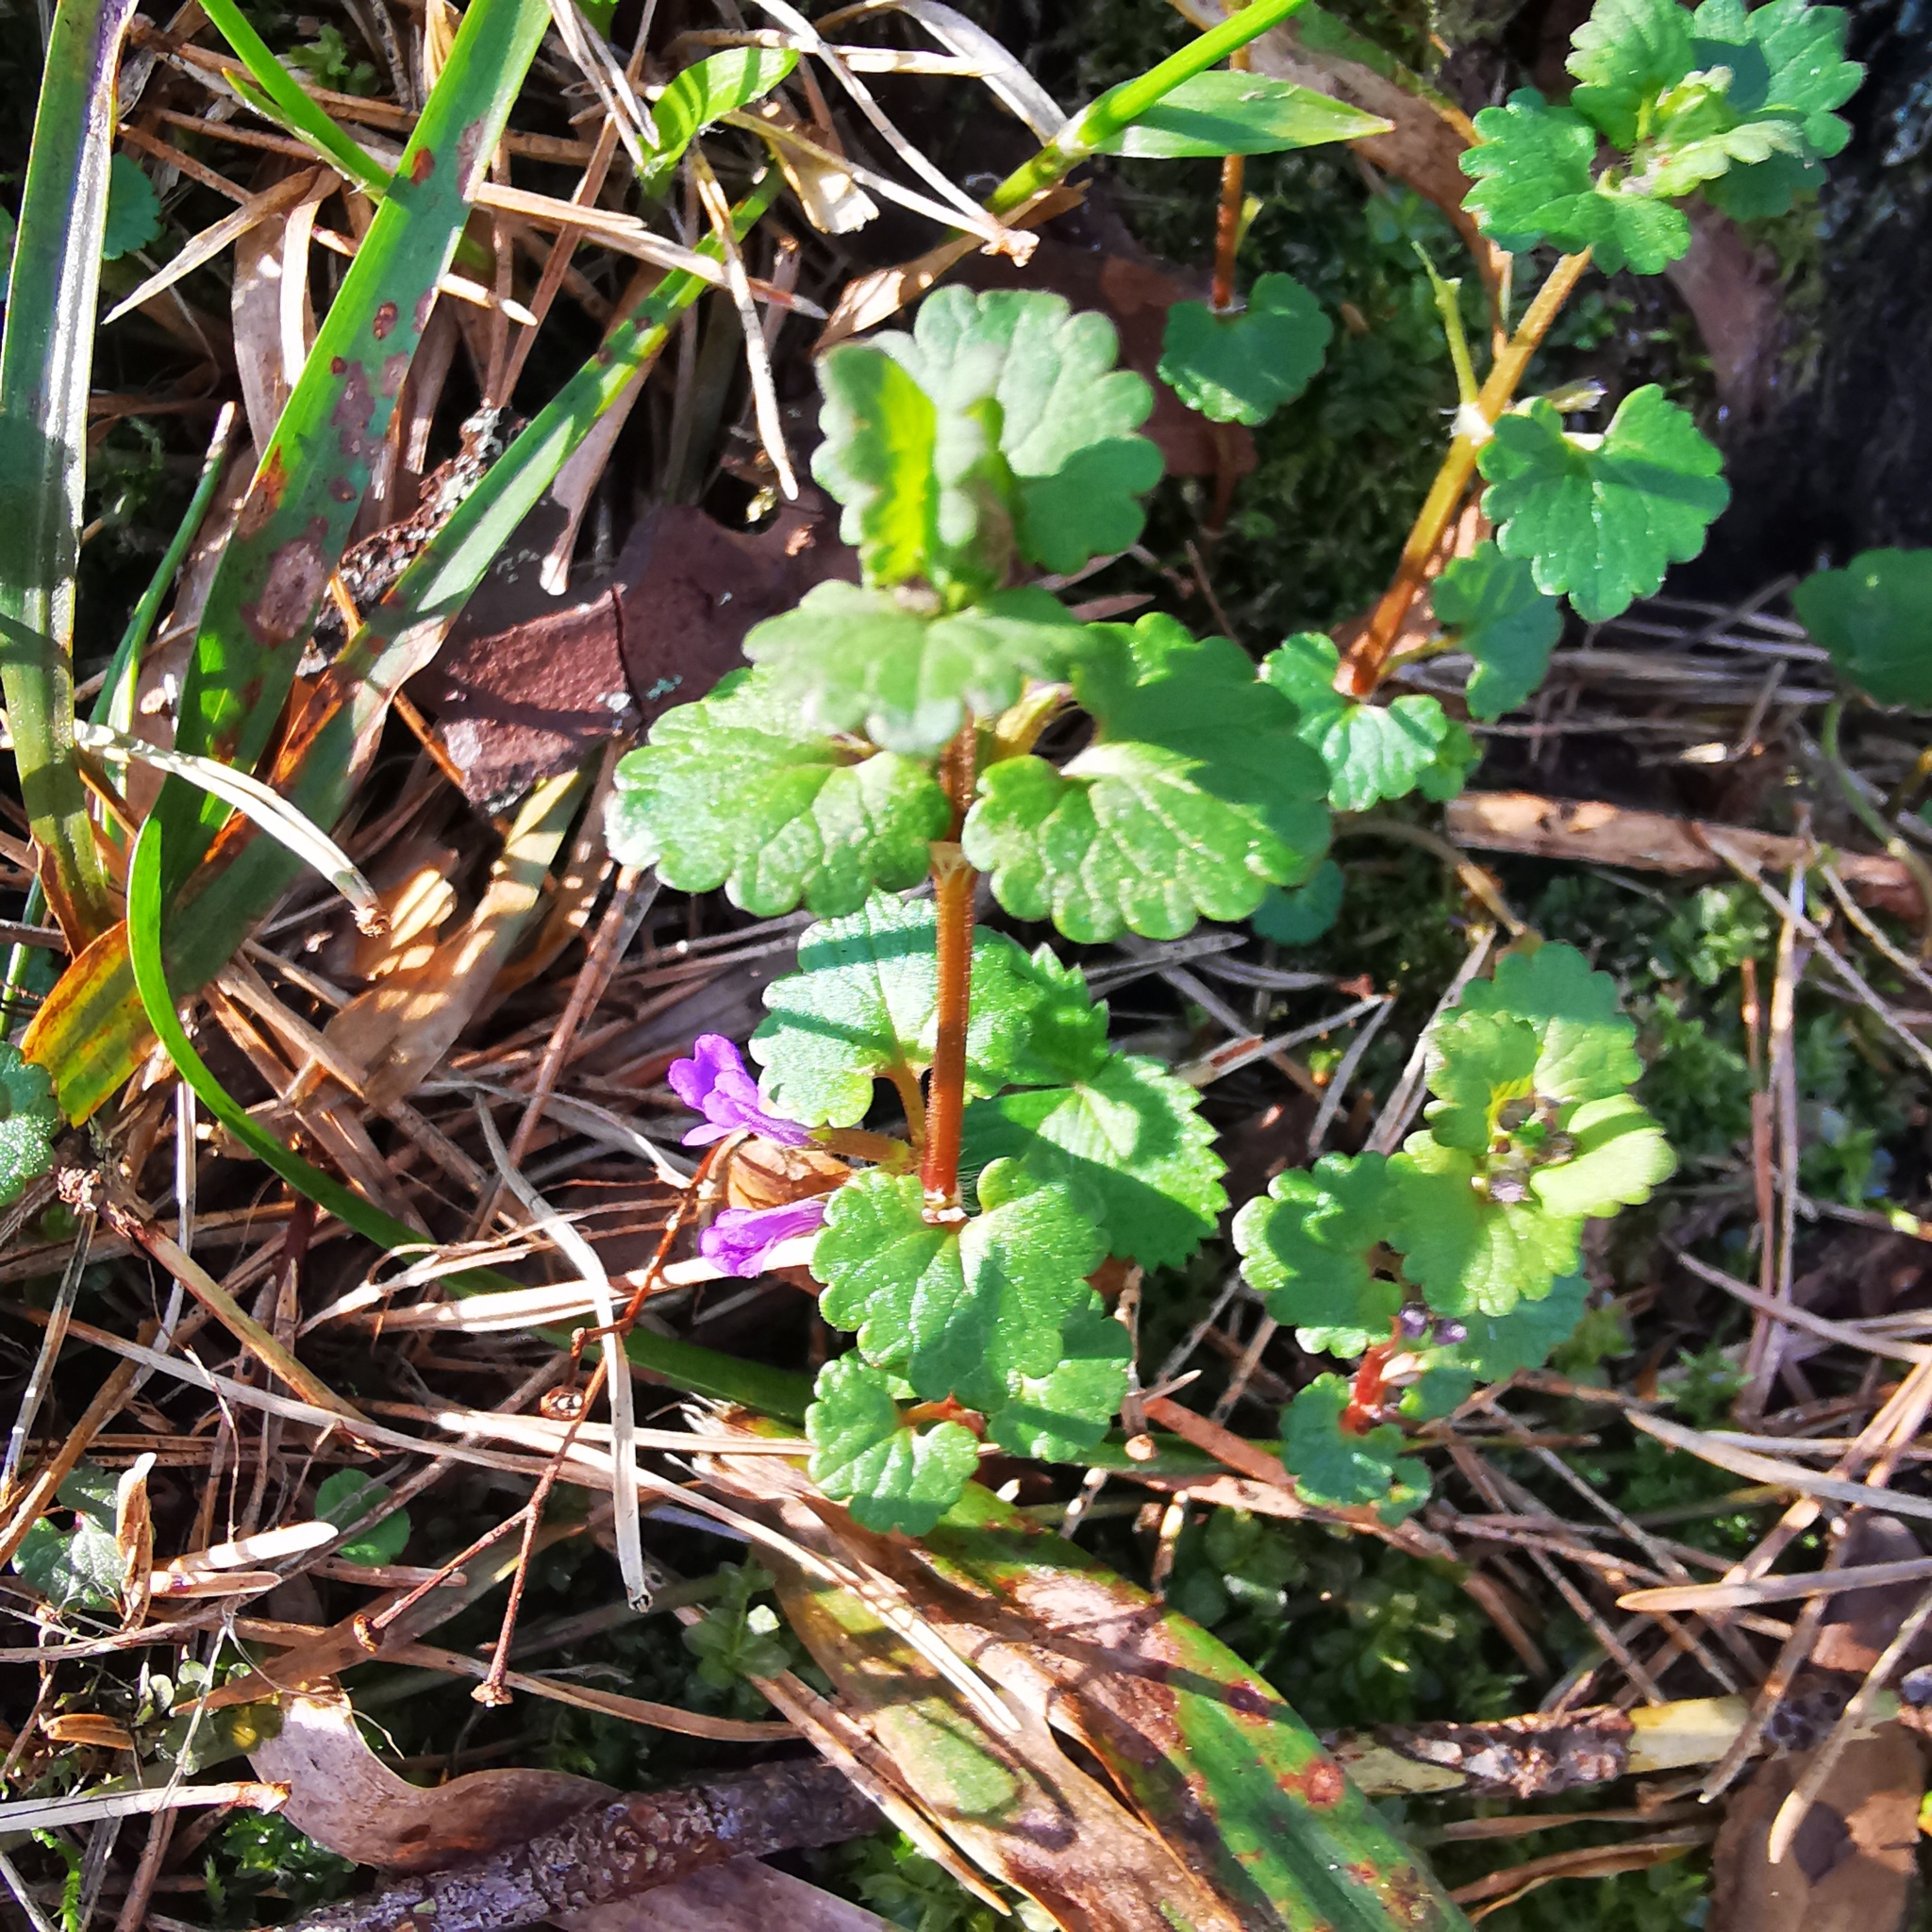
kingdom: Plantae
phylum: Tracheophyta
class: Magnoliopsida
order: Lamiales
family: Lamiaceae
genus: Glechoma
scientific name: Glechoma hederacea
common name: Ground ivy
